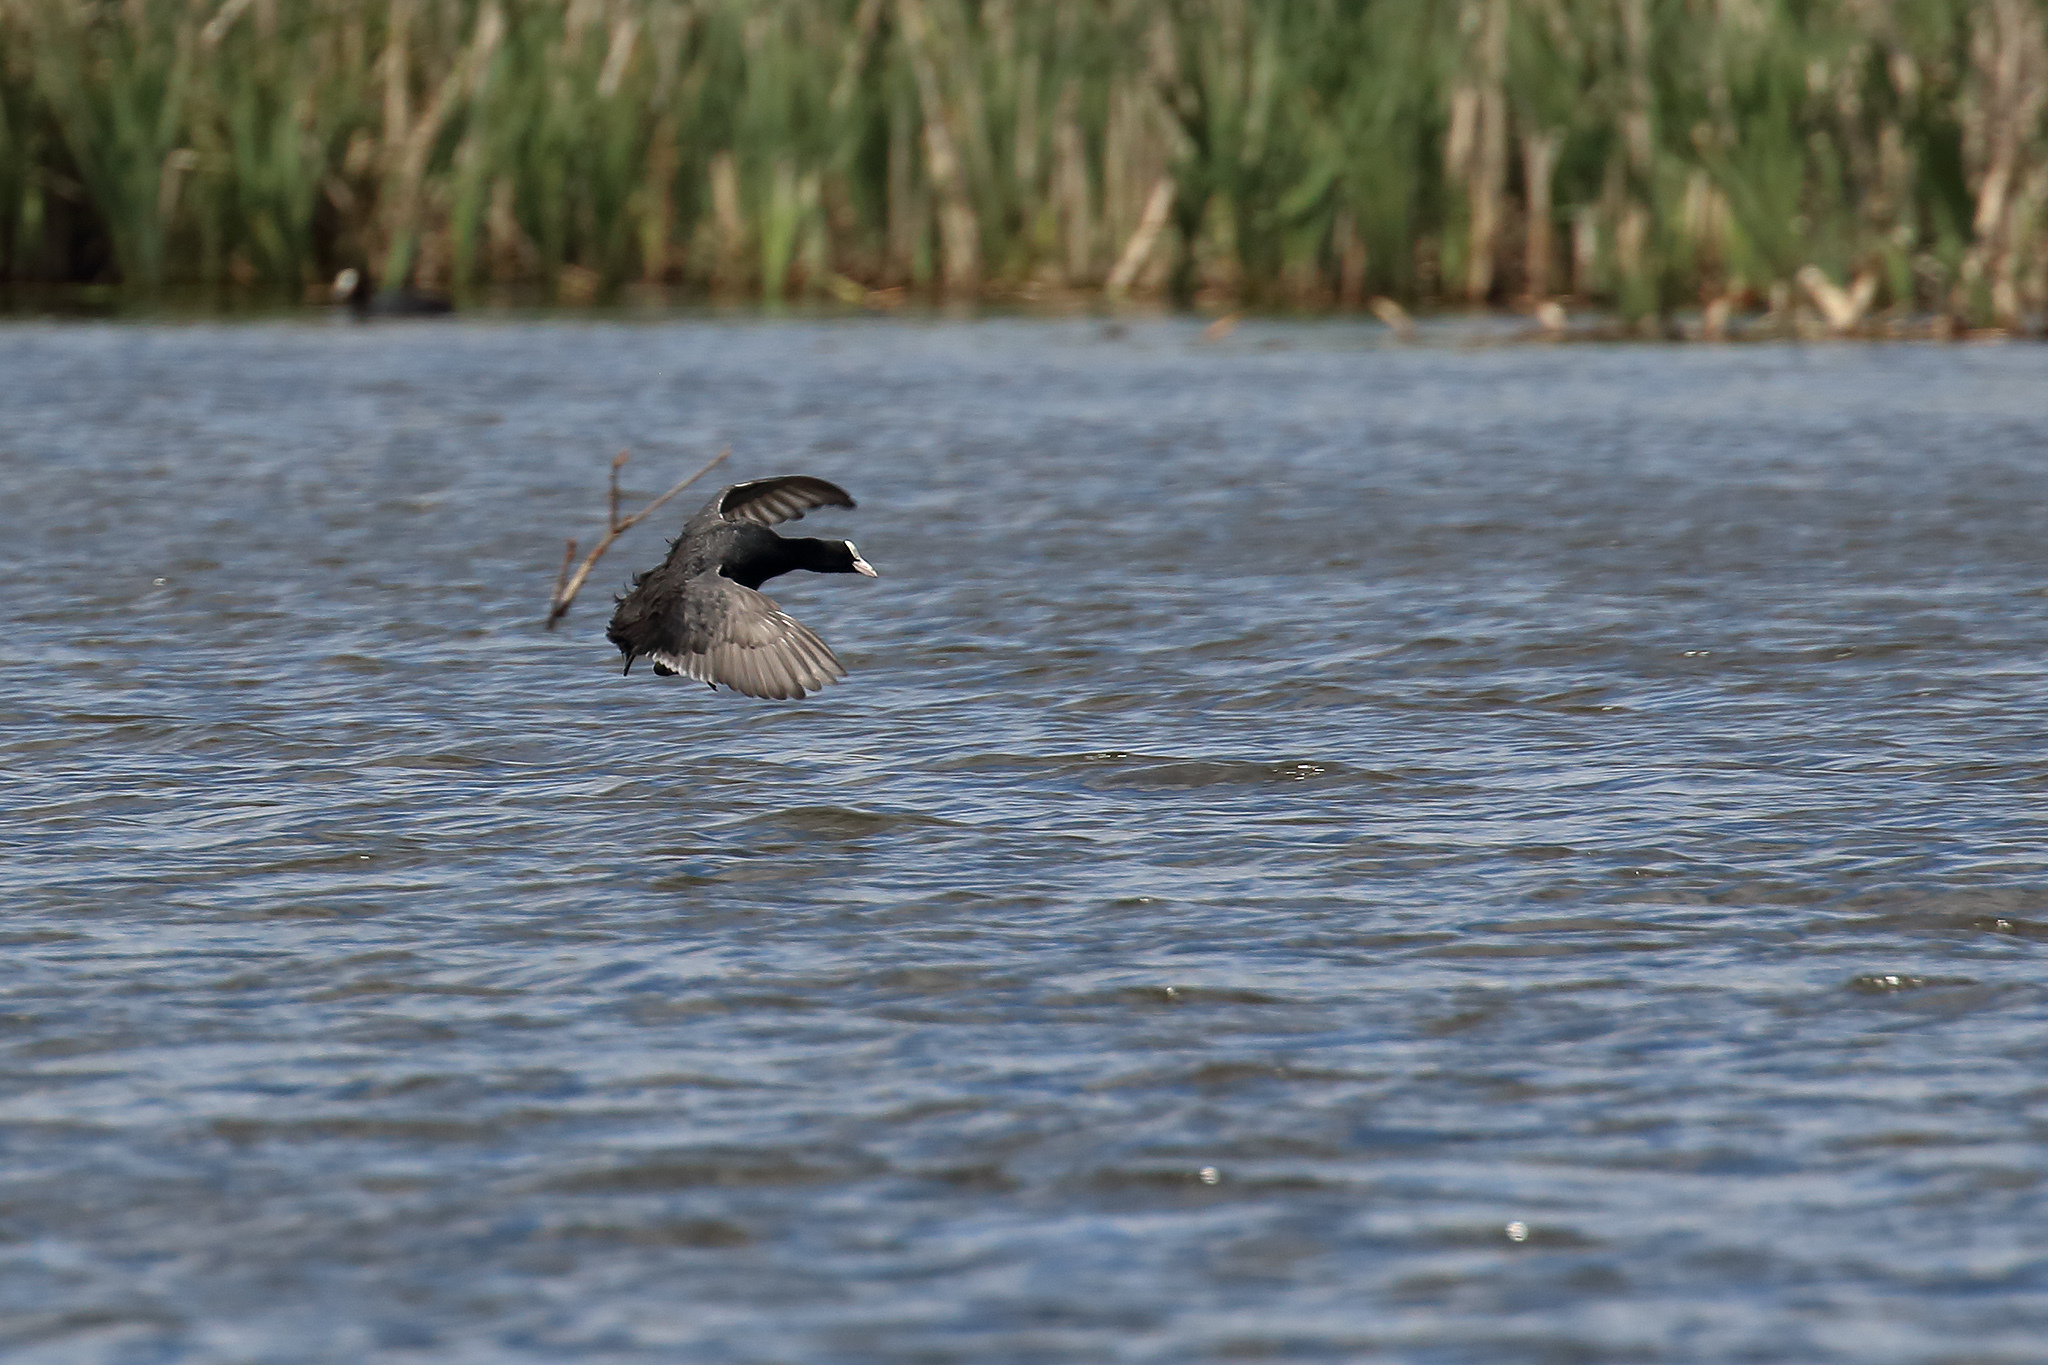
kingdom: Animalia
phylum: Chordata
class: Aves
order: Gruiformes
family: Rallidae
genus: Fulica
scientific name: Fulica atra
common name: Eurasian coot
